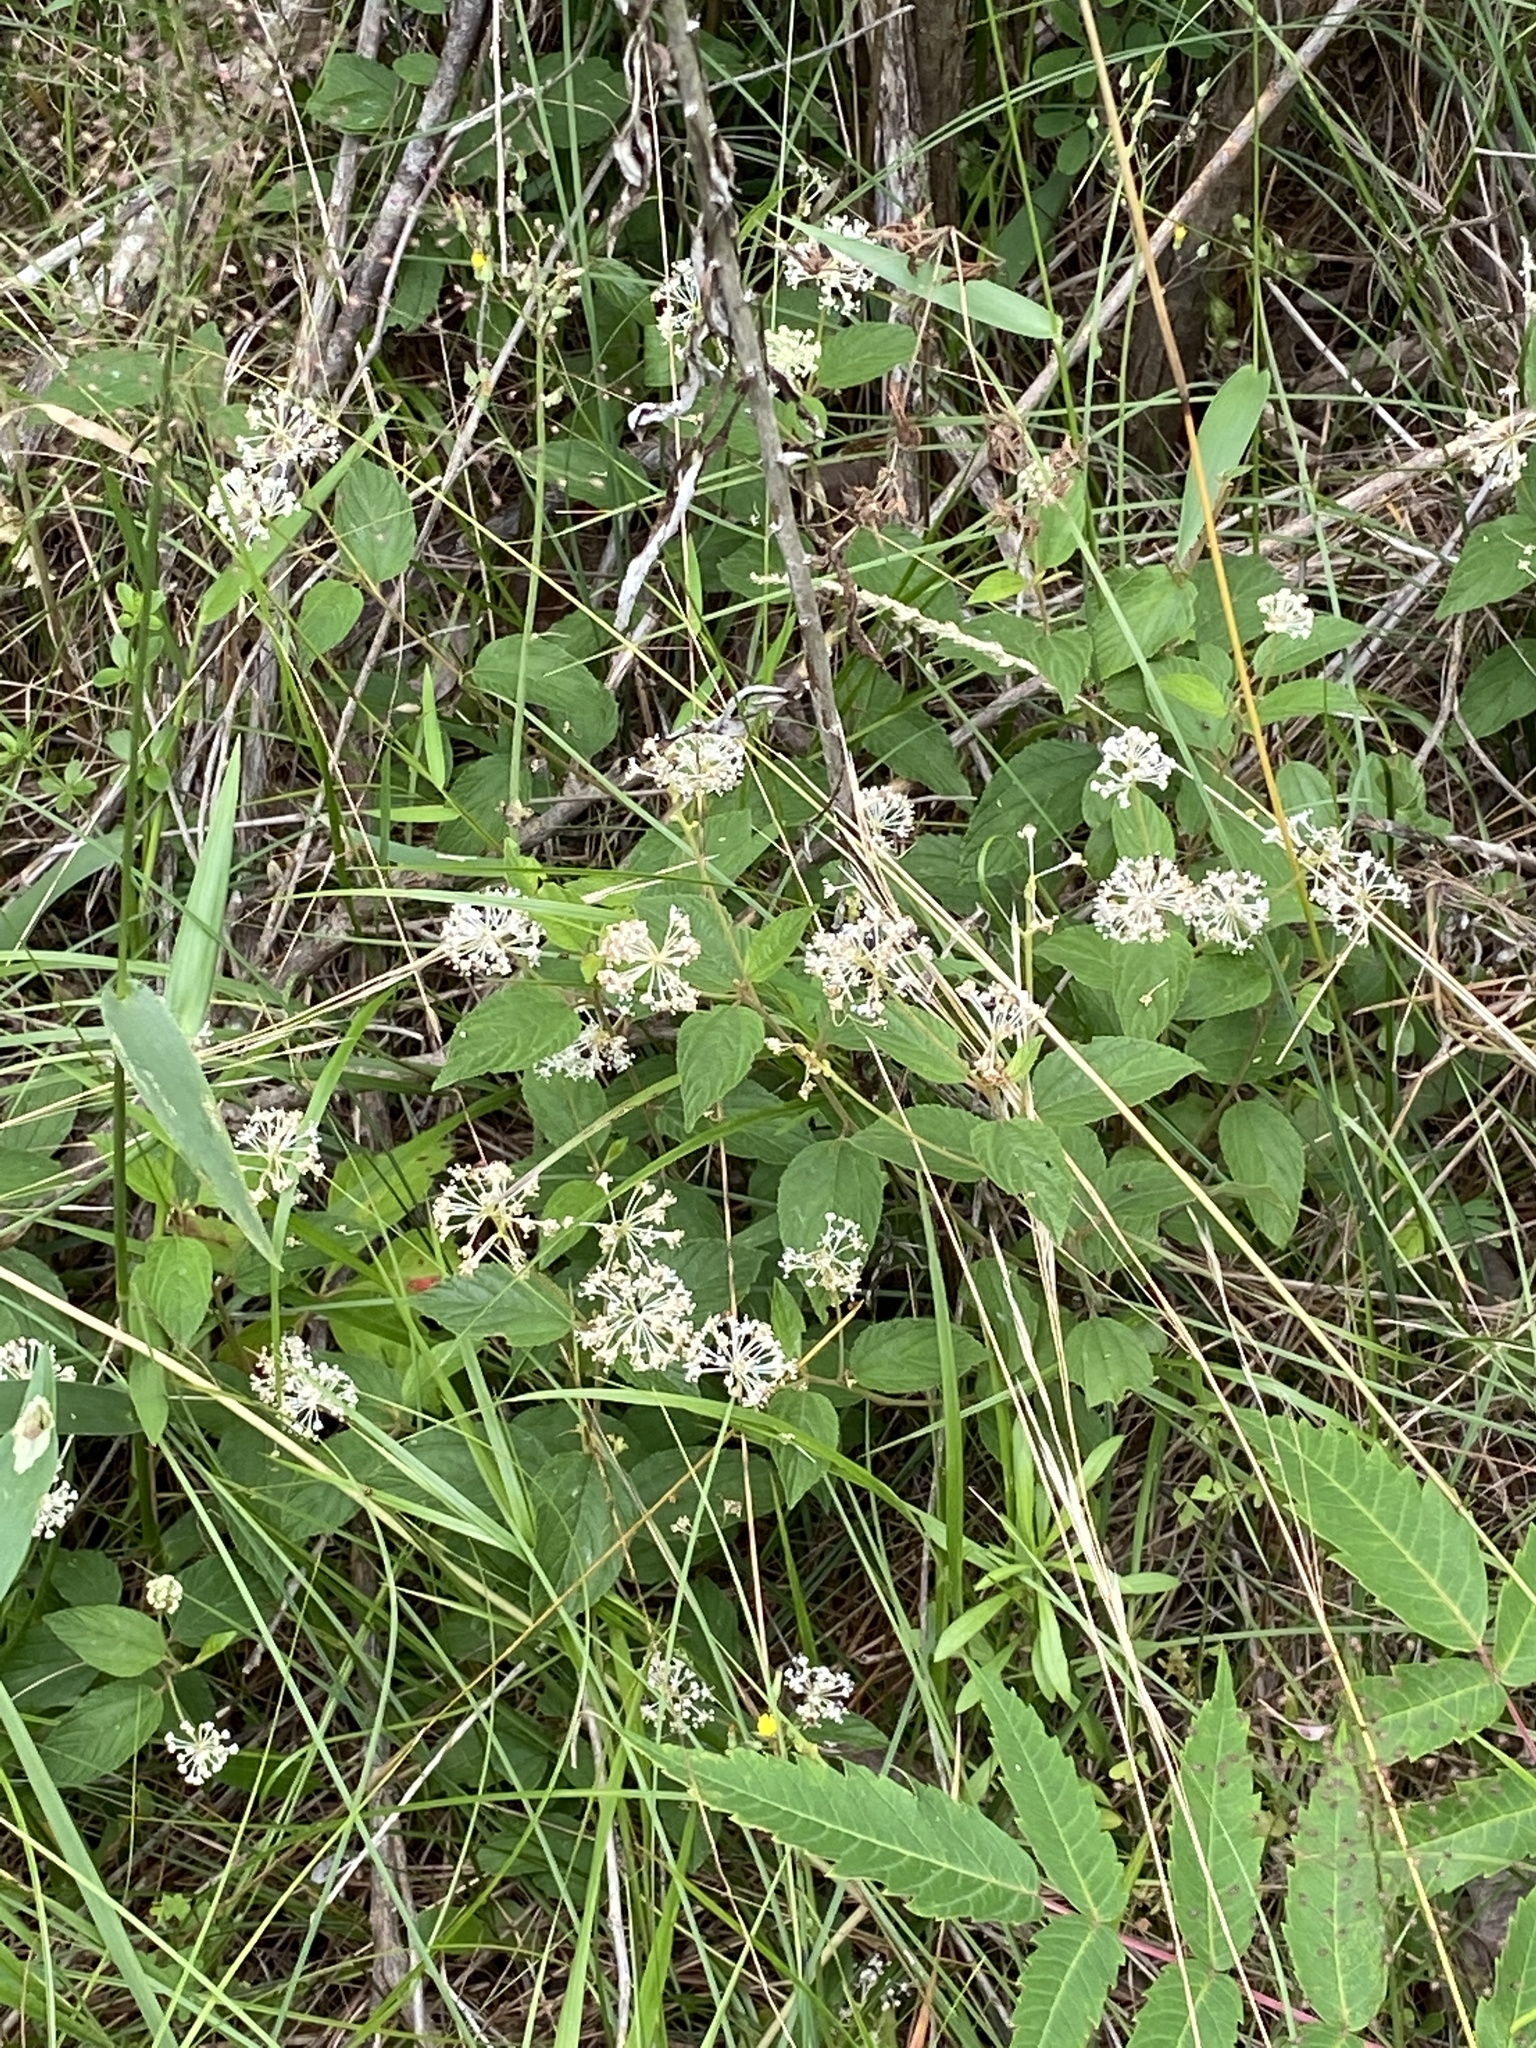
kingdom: Plantae
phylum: Tracheophyta
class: Magnoliopsida
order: Rosales
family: Rhamnaceae
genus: Ceanothus
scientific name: Ceanothus americanus
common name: Redroot
